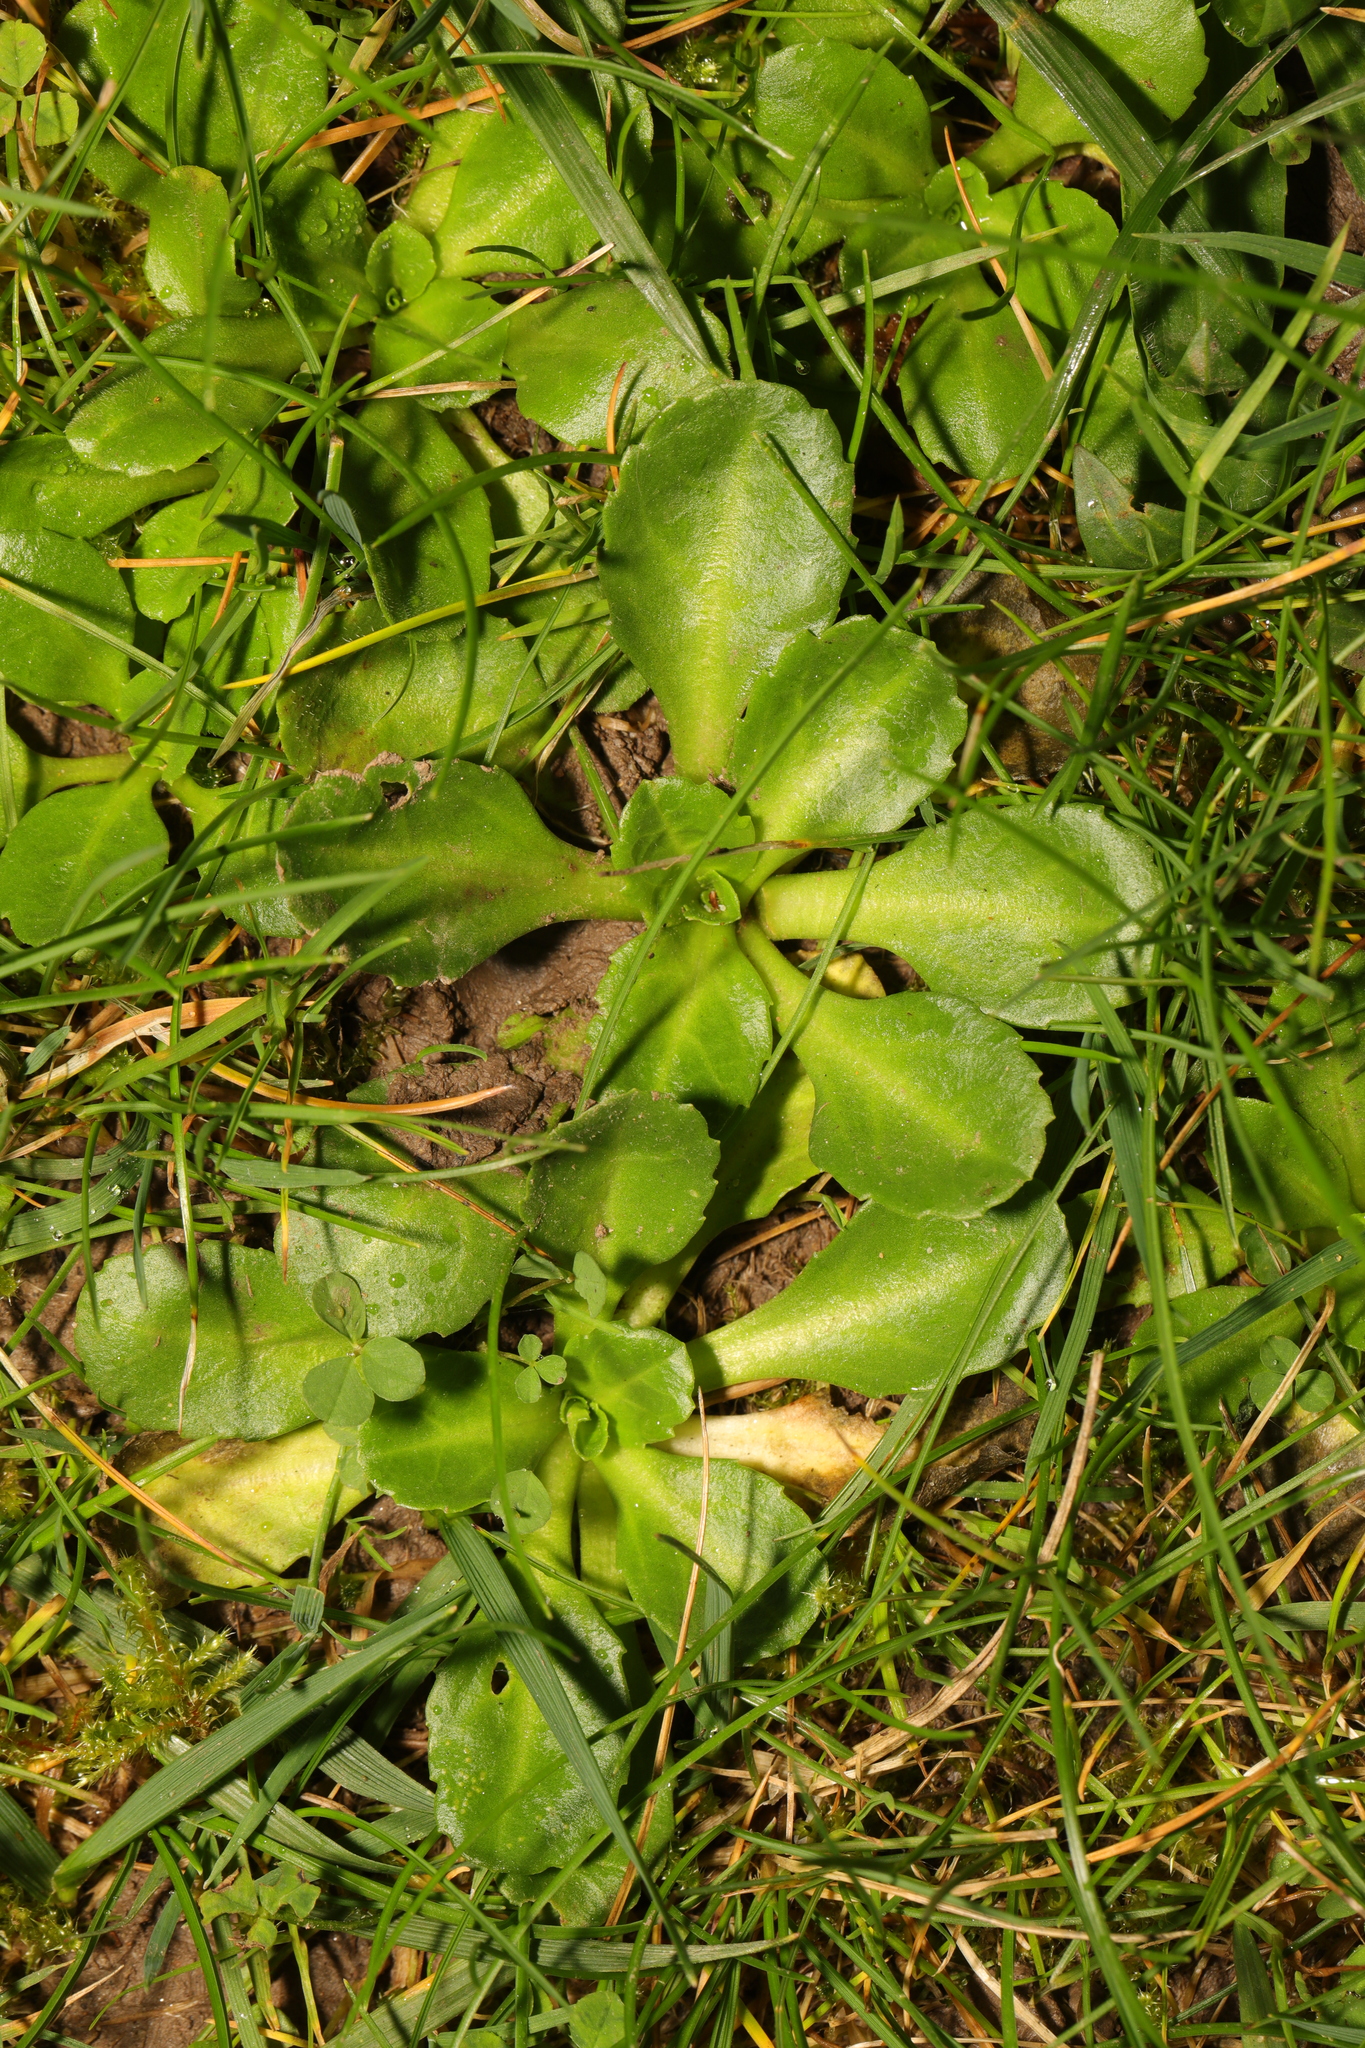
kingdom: Plantae
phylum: Tracheophyta
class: Magnoliopsida
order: Asterales
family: Asteraceae
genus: Bellis
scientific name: Bellis perennis
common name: Lawndaisy
